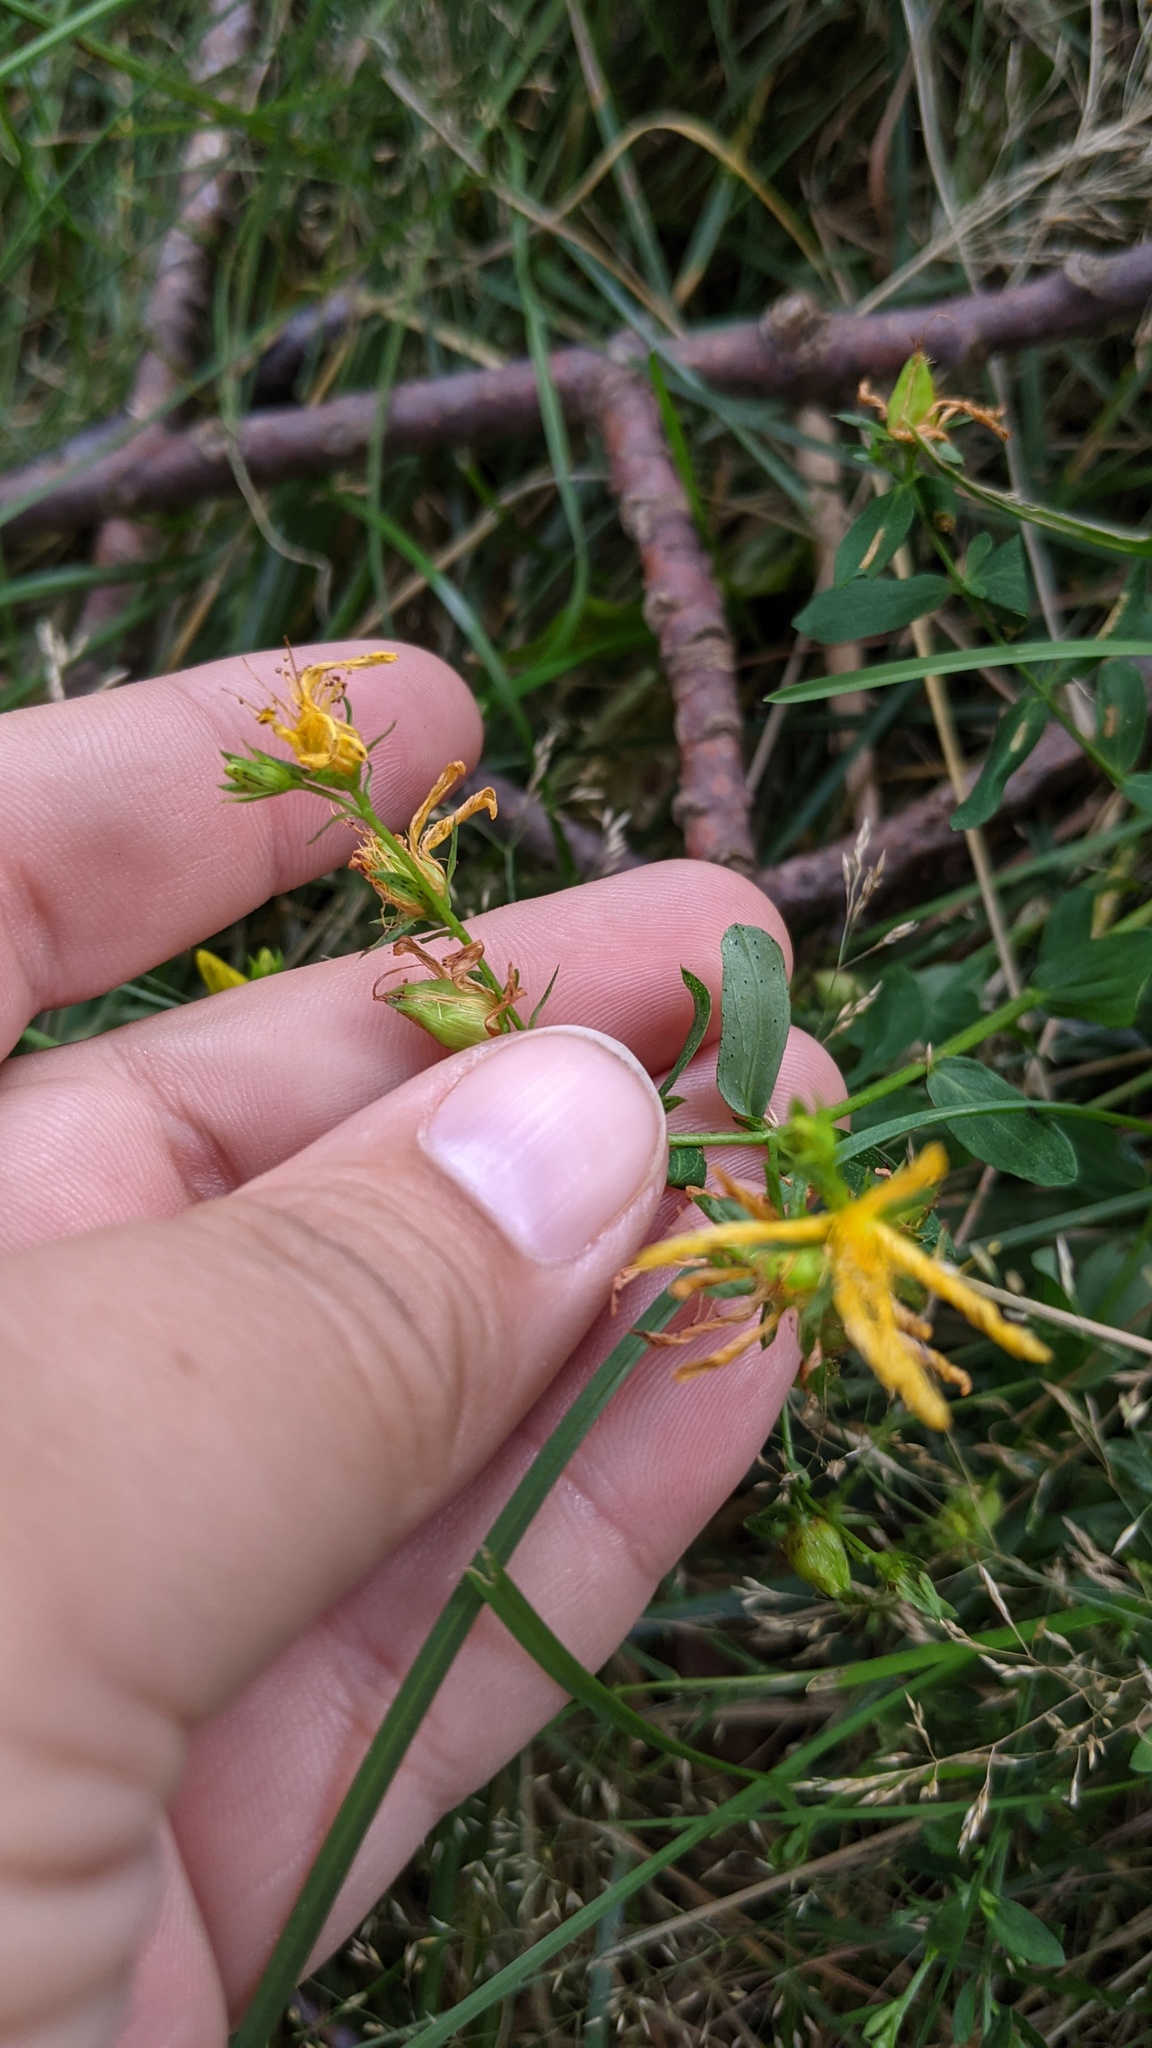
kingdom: Plantae
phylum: Tracheophyta
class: Magnoliopsida
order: Malpighiales
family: Hypericaceae
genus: Hypericum
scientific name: Hypericum perforatum
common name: Common st. johnswort
